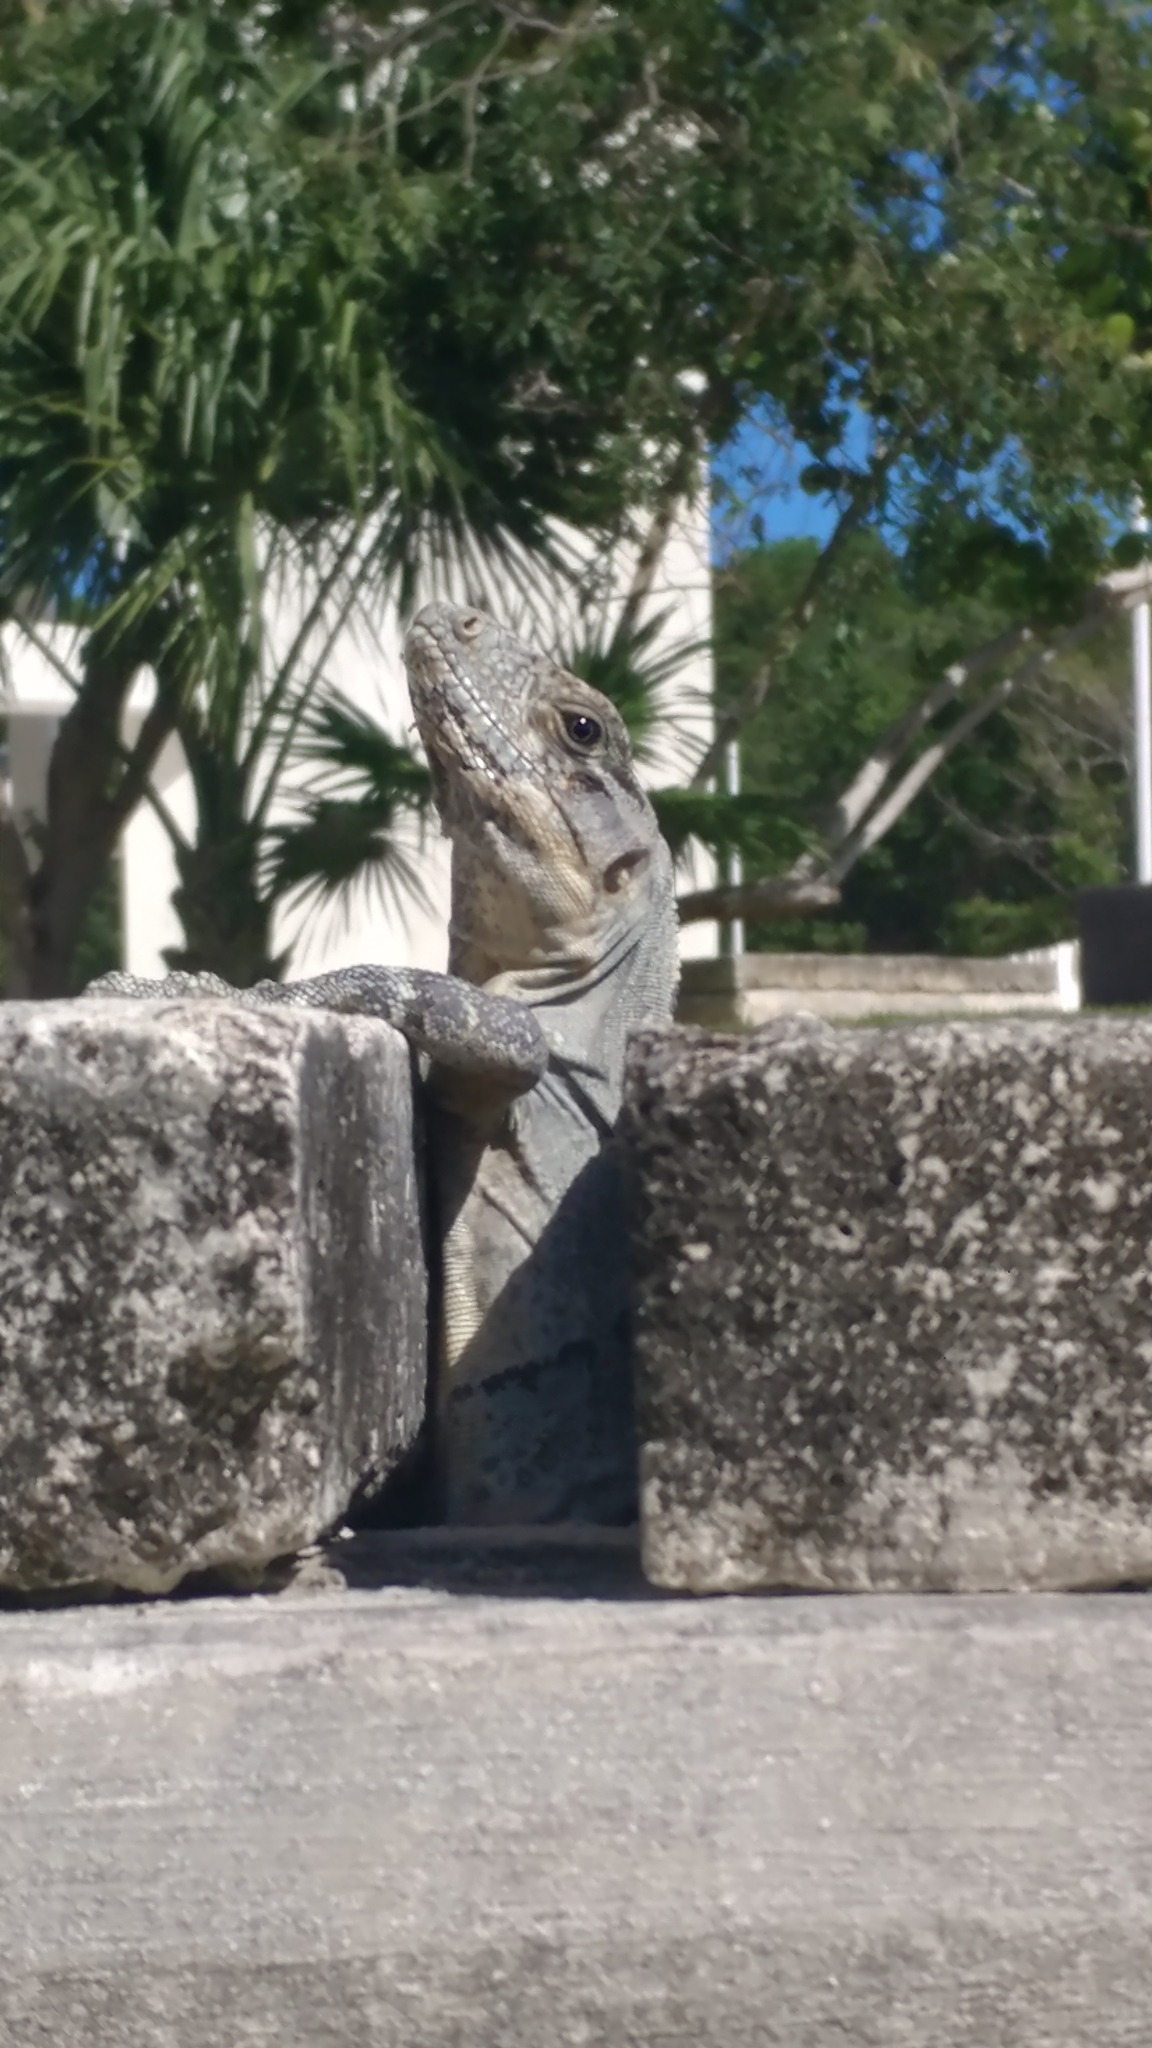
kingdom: Animalia
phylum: Chordata
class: Squamata
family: Iguanidae
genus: Ctenosaura
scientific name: Ctenosaura similis
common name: Black spiny-tailed iguana
